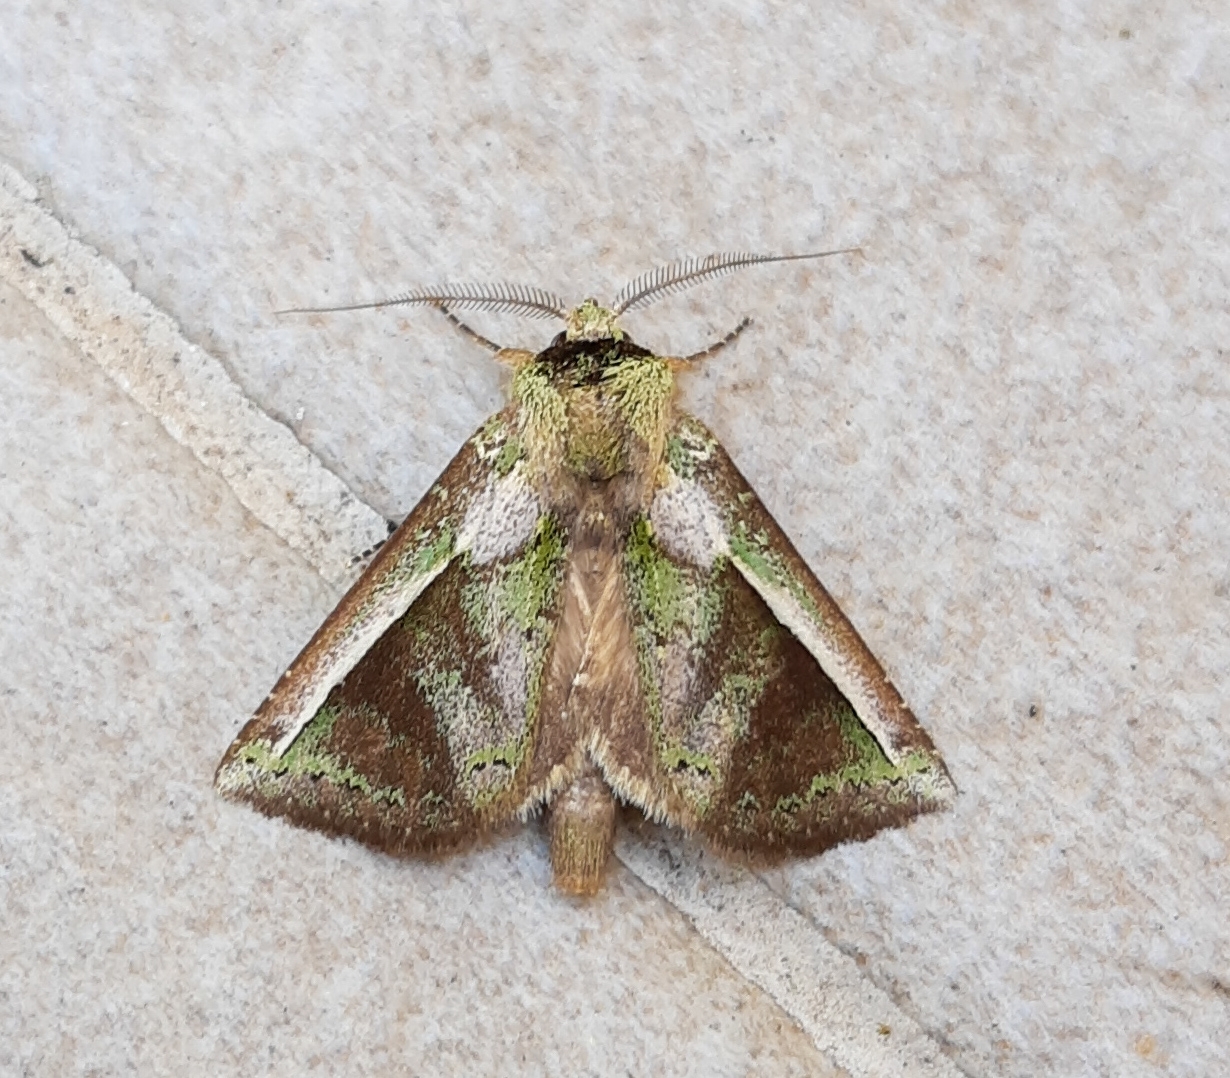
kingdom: Animalia
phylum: Arthropoda
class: Insecta
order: Lepidoptera
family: Notodontidae
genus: Gopha
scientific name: Gopha mixtipennis
